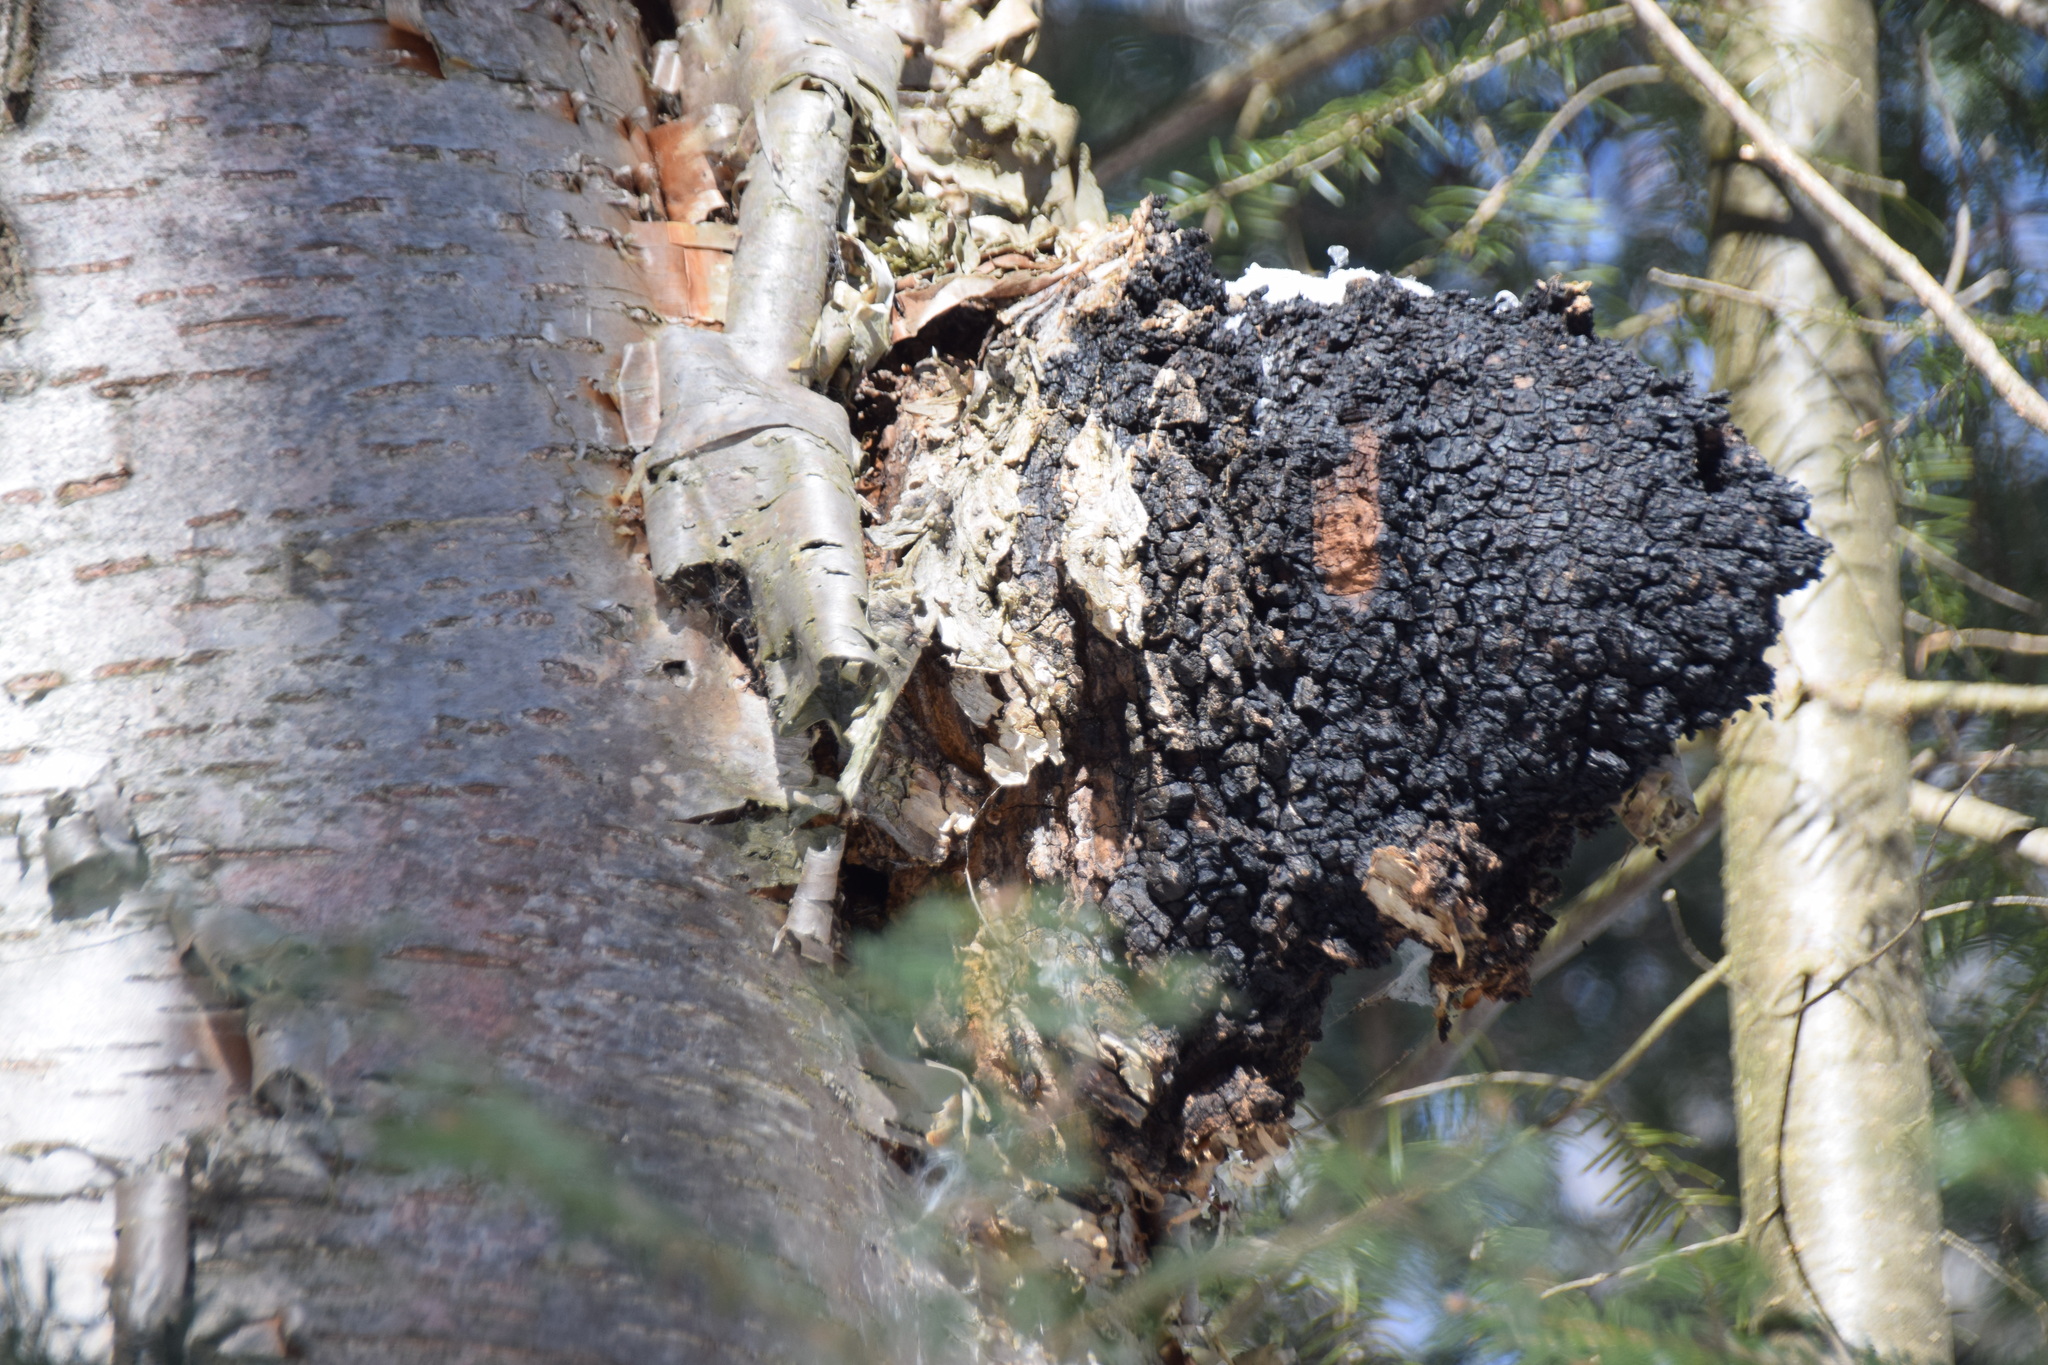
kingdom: Fungi
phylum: Basidiomycota
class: Agaricomycetes
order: Hymenochaetales
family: Hymenochaetaceae
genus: Inonotus
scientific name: Inonotus obliquus
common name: Chaga
